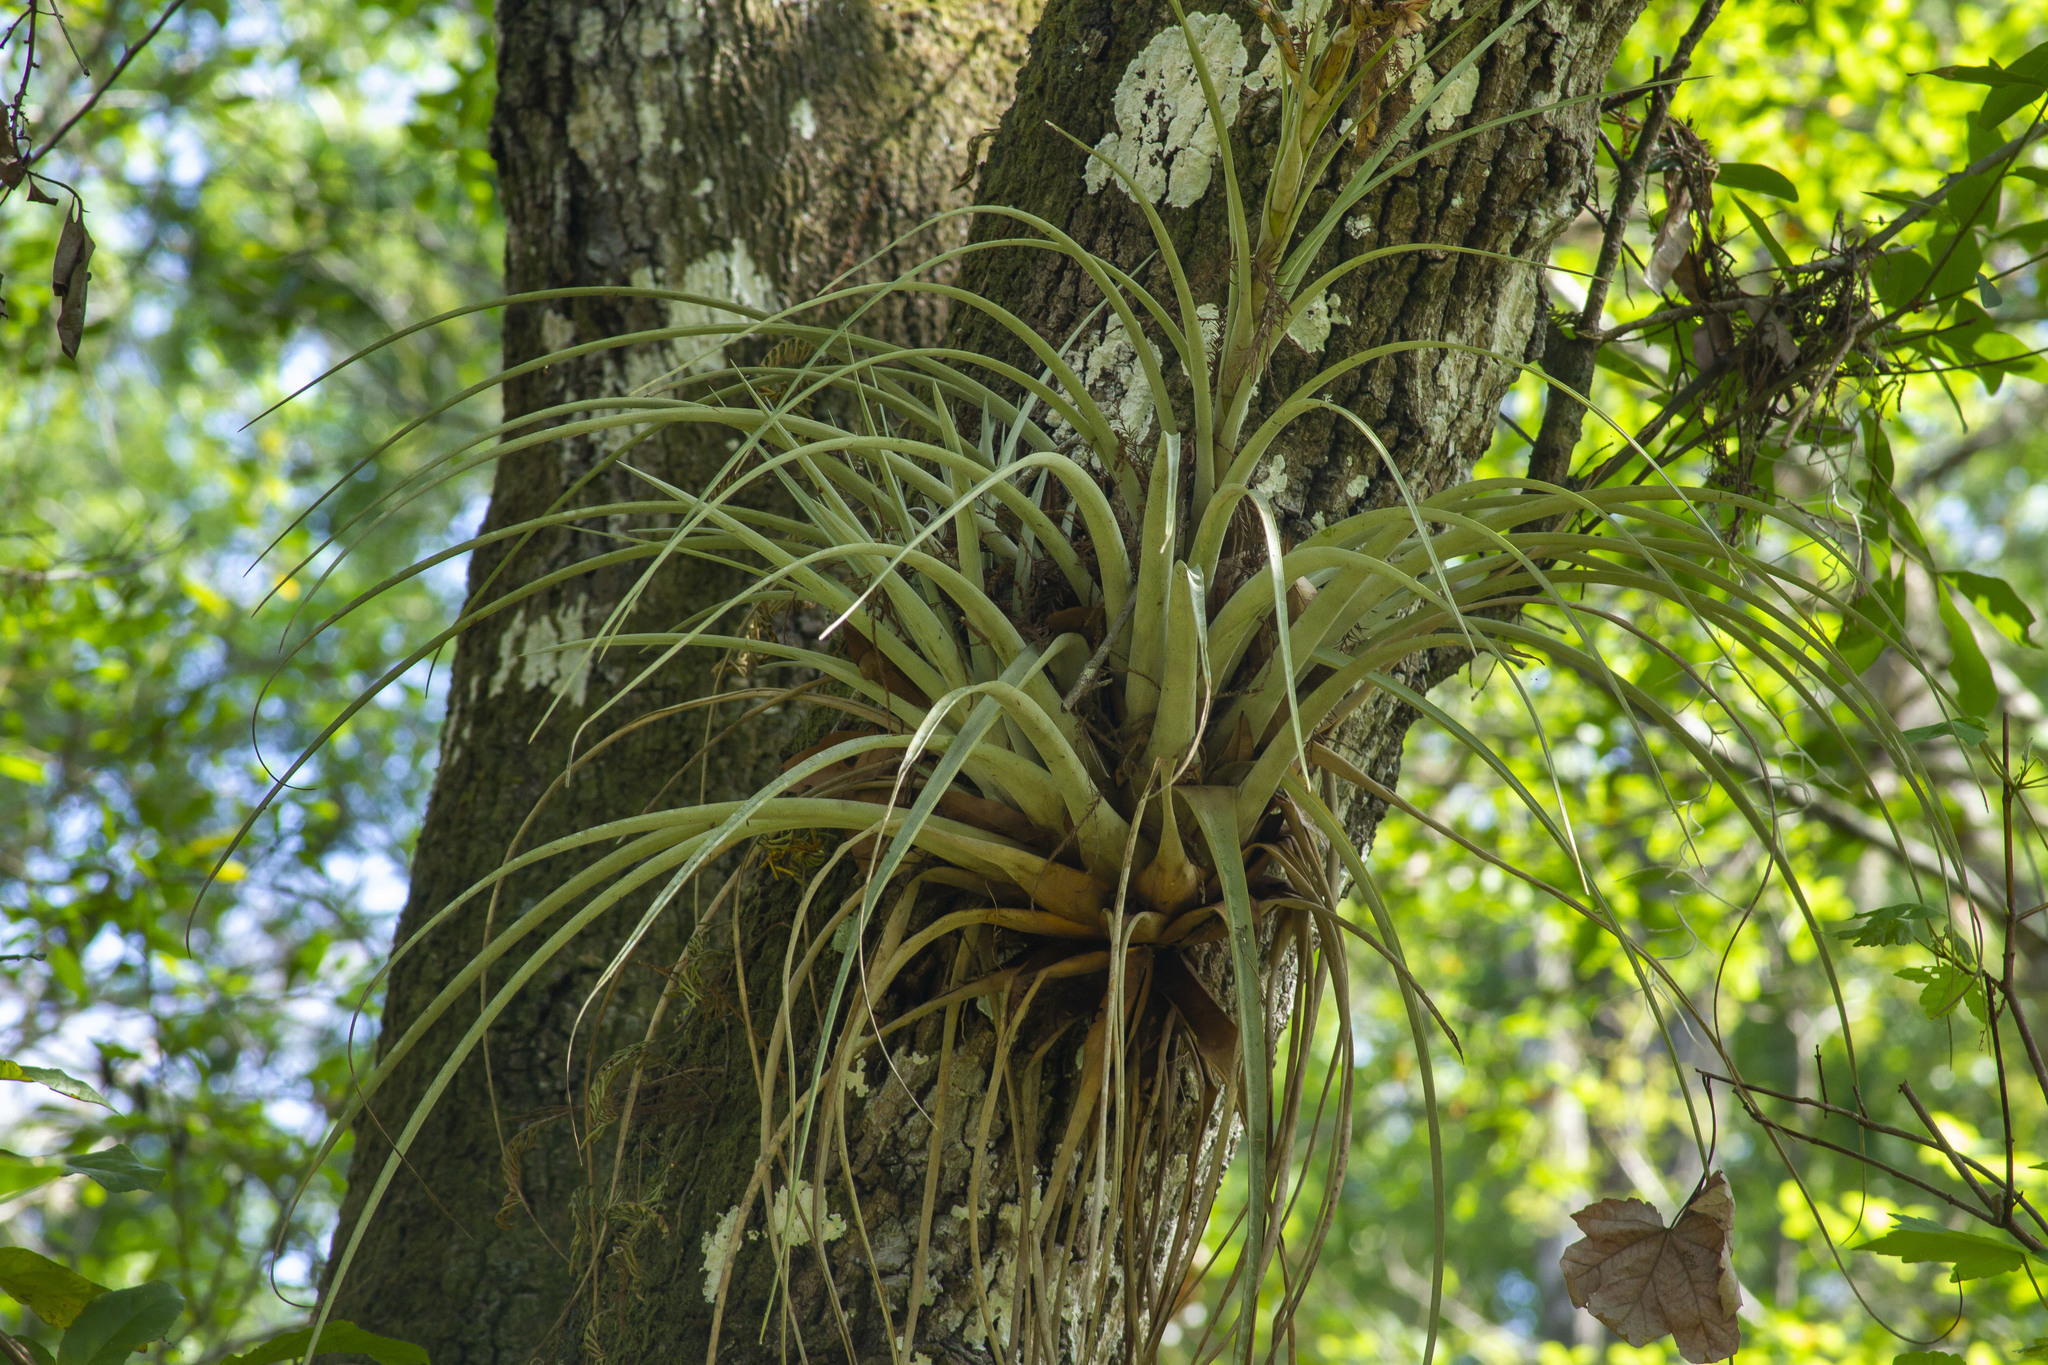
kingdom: Plantae
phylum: Tracheophyta
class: Liliopsida
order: Poales
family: Bromeliaceae
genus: Tillandsia
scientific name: Tillandsia fasciculata
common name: Giant airplant
